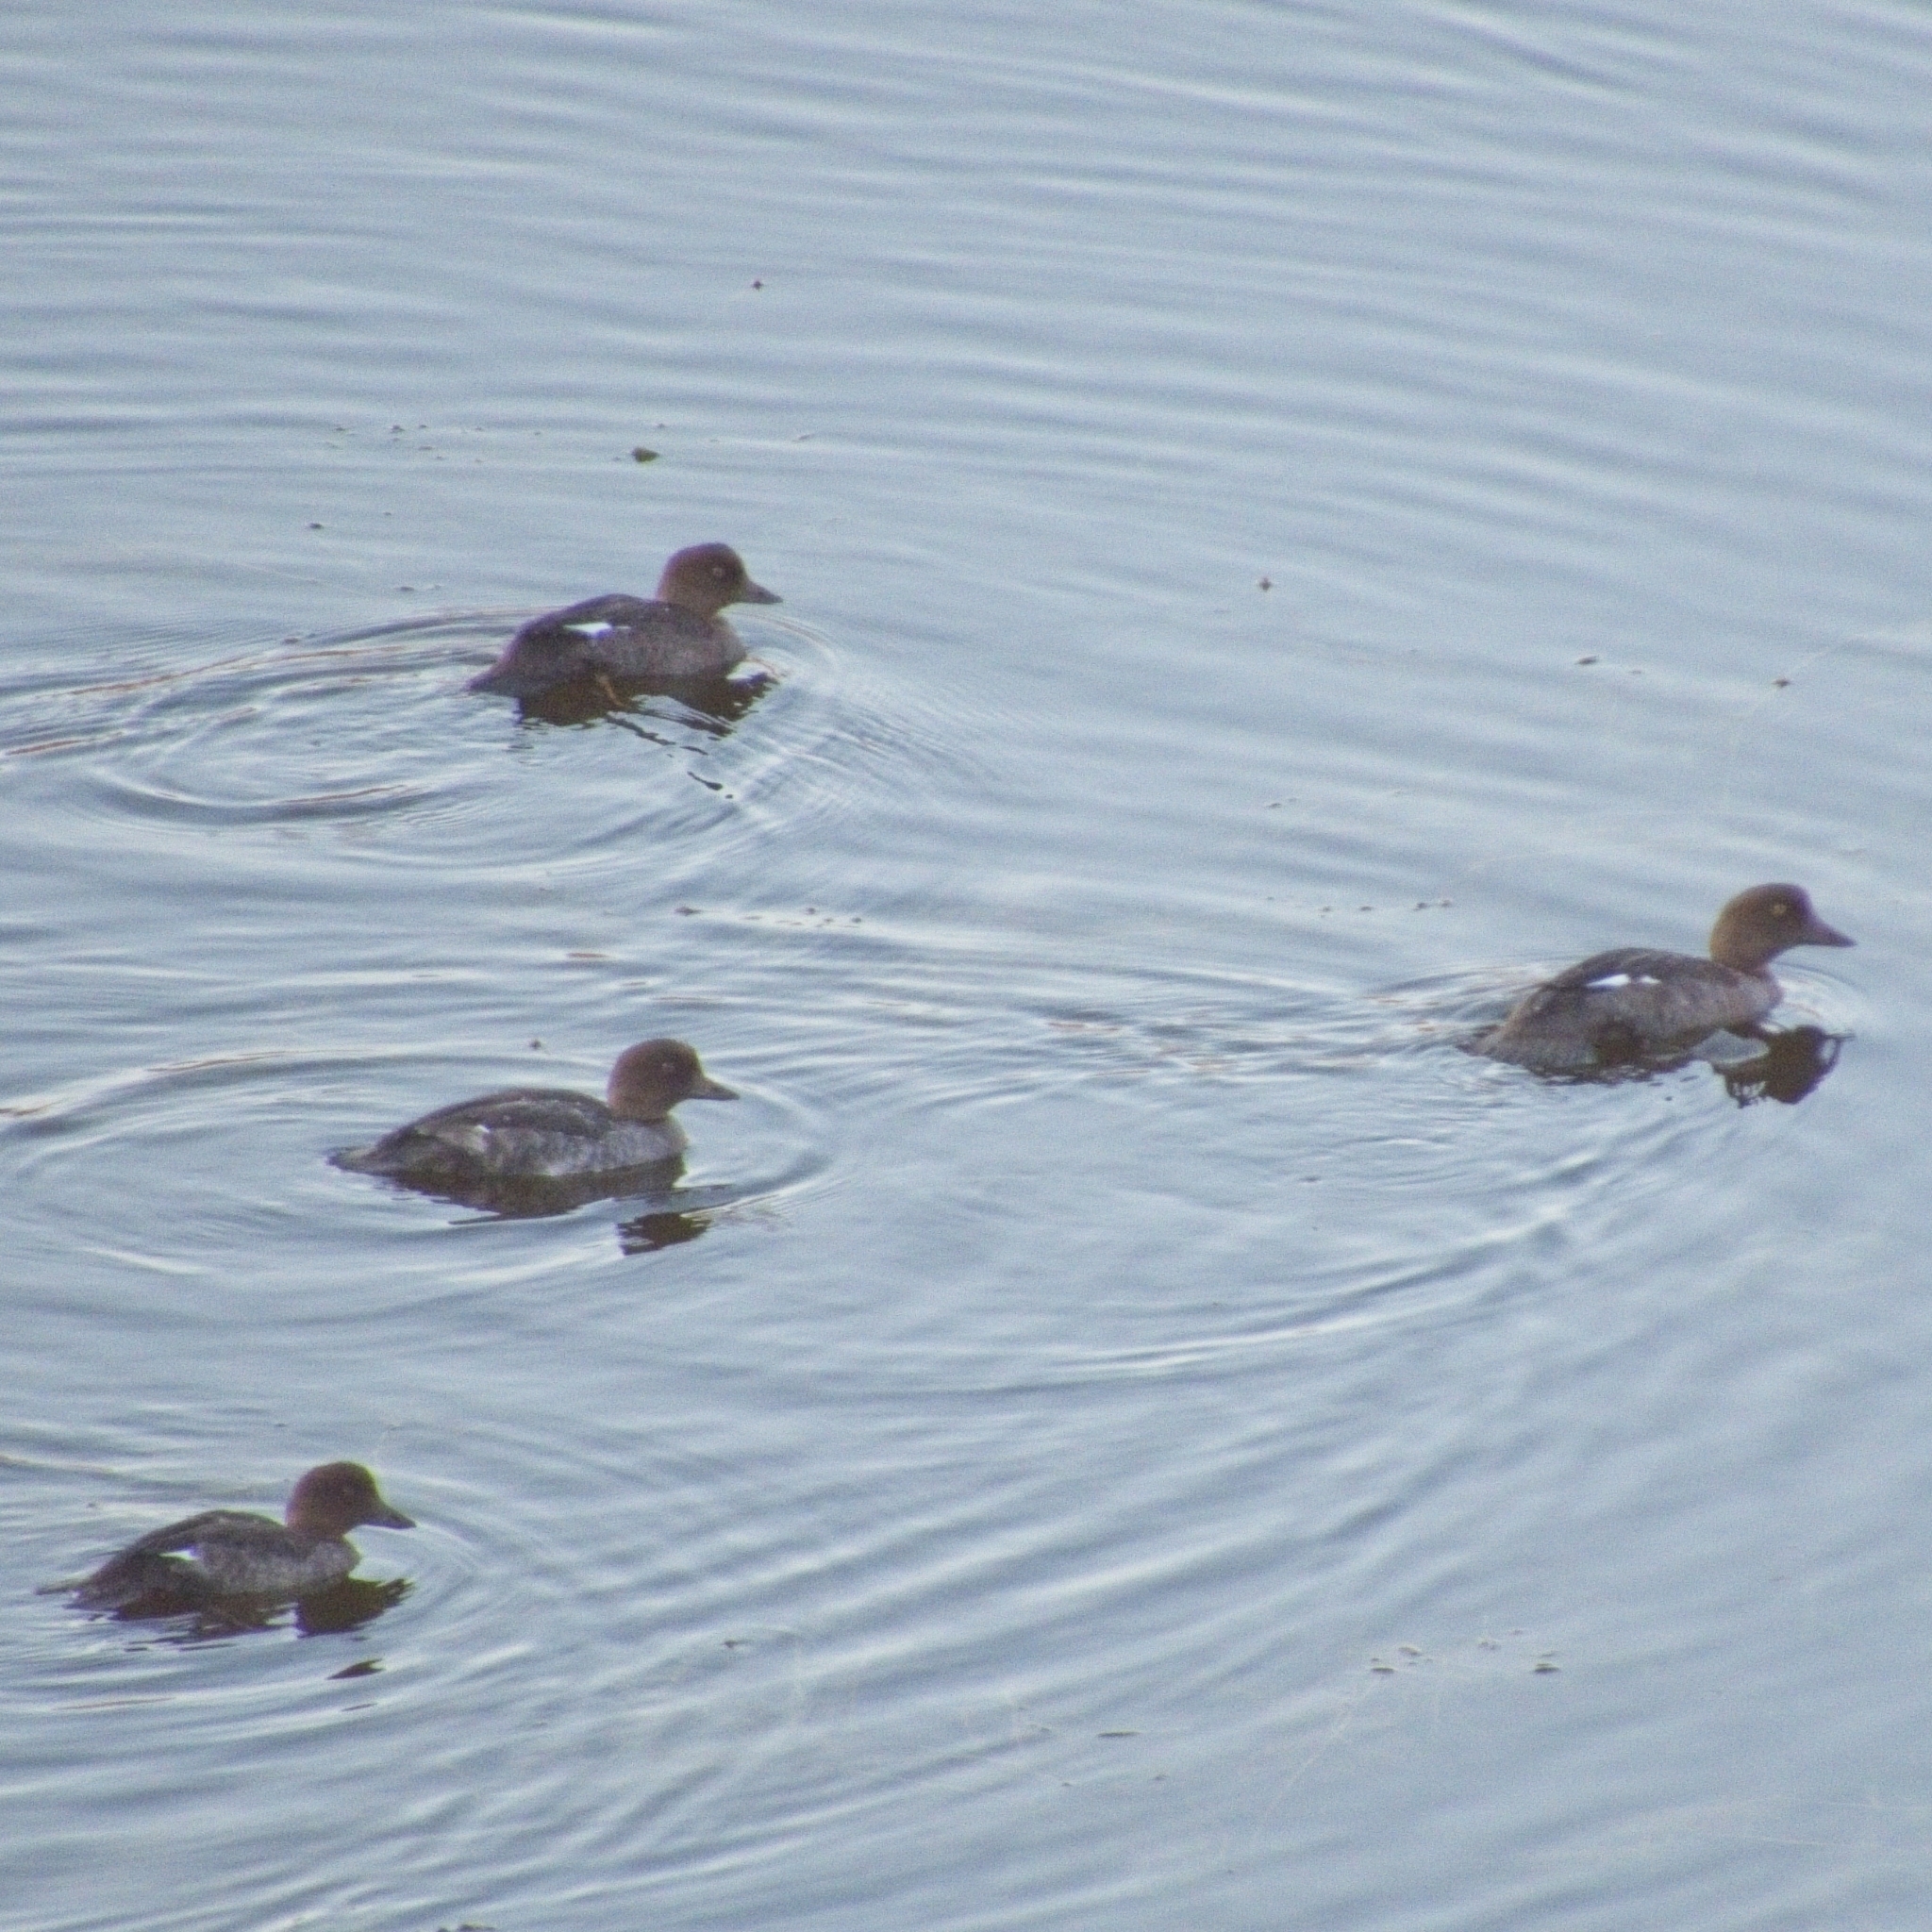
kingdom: Animalia
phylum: Chordata
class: Aves
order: Anseriformes
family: Anatidae
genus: Bucephala
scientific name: Bucephala clangula
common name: Common goldeneye
